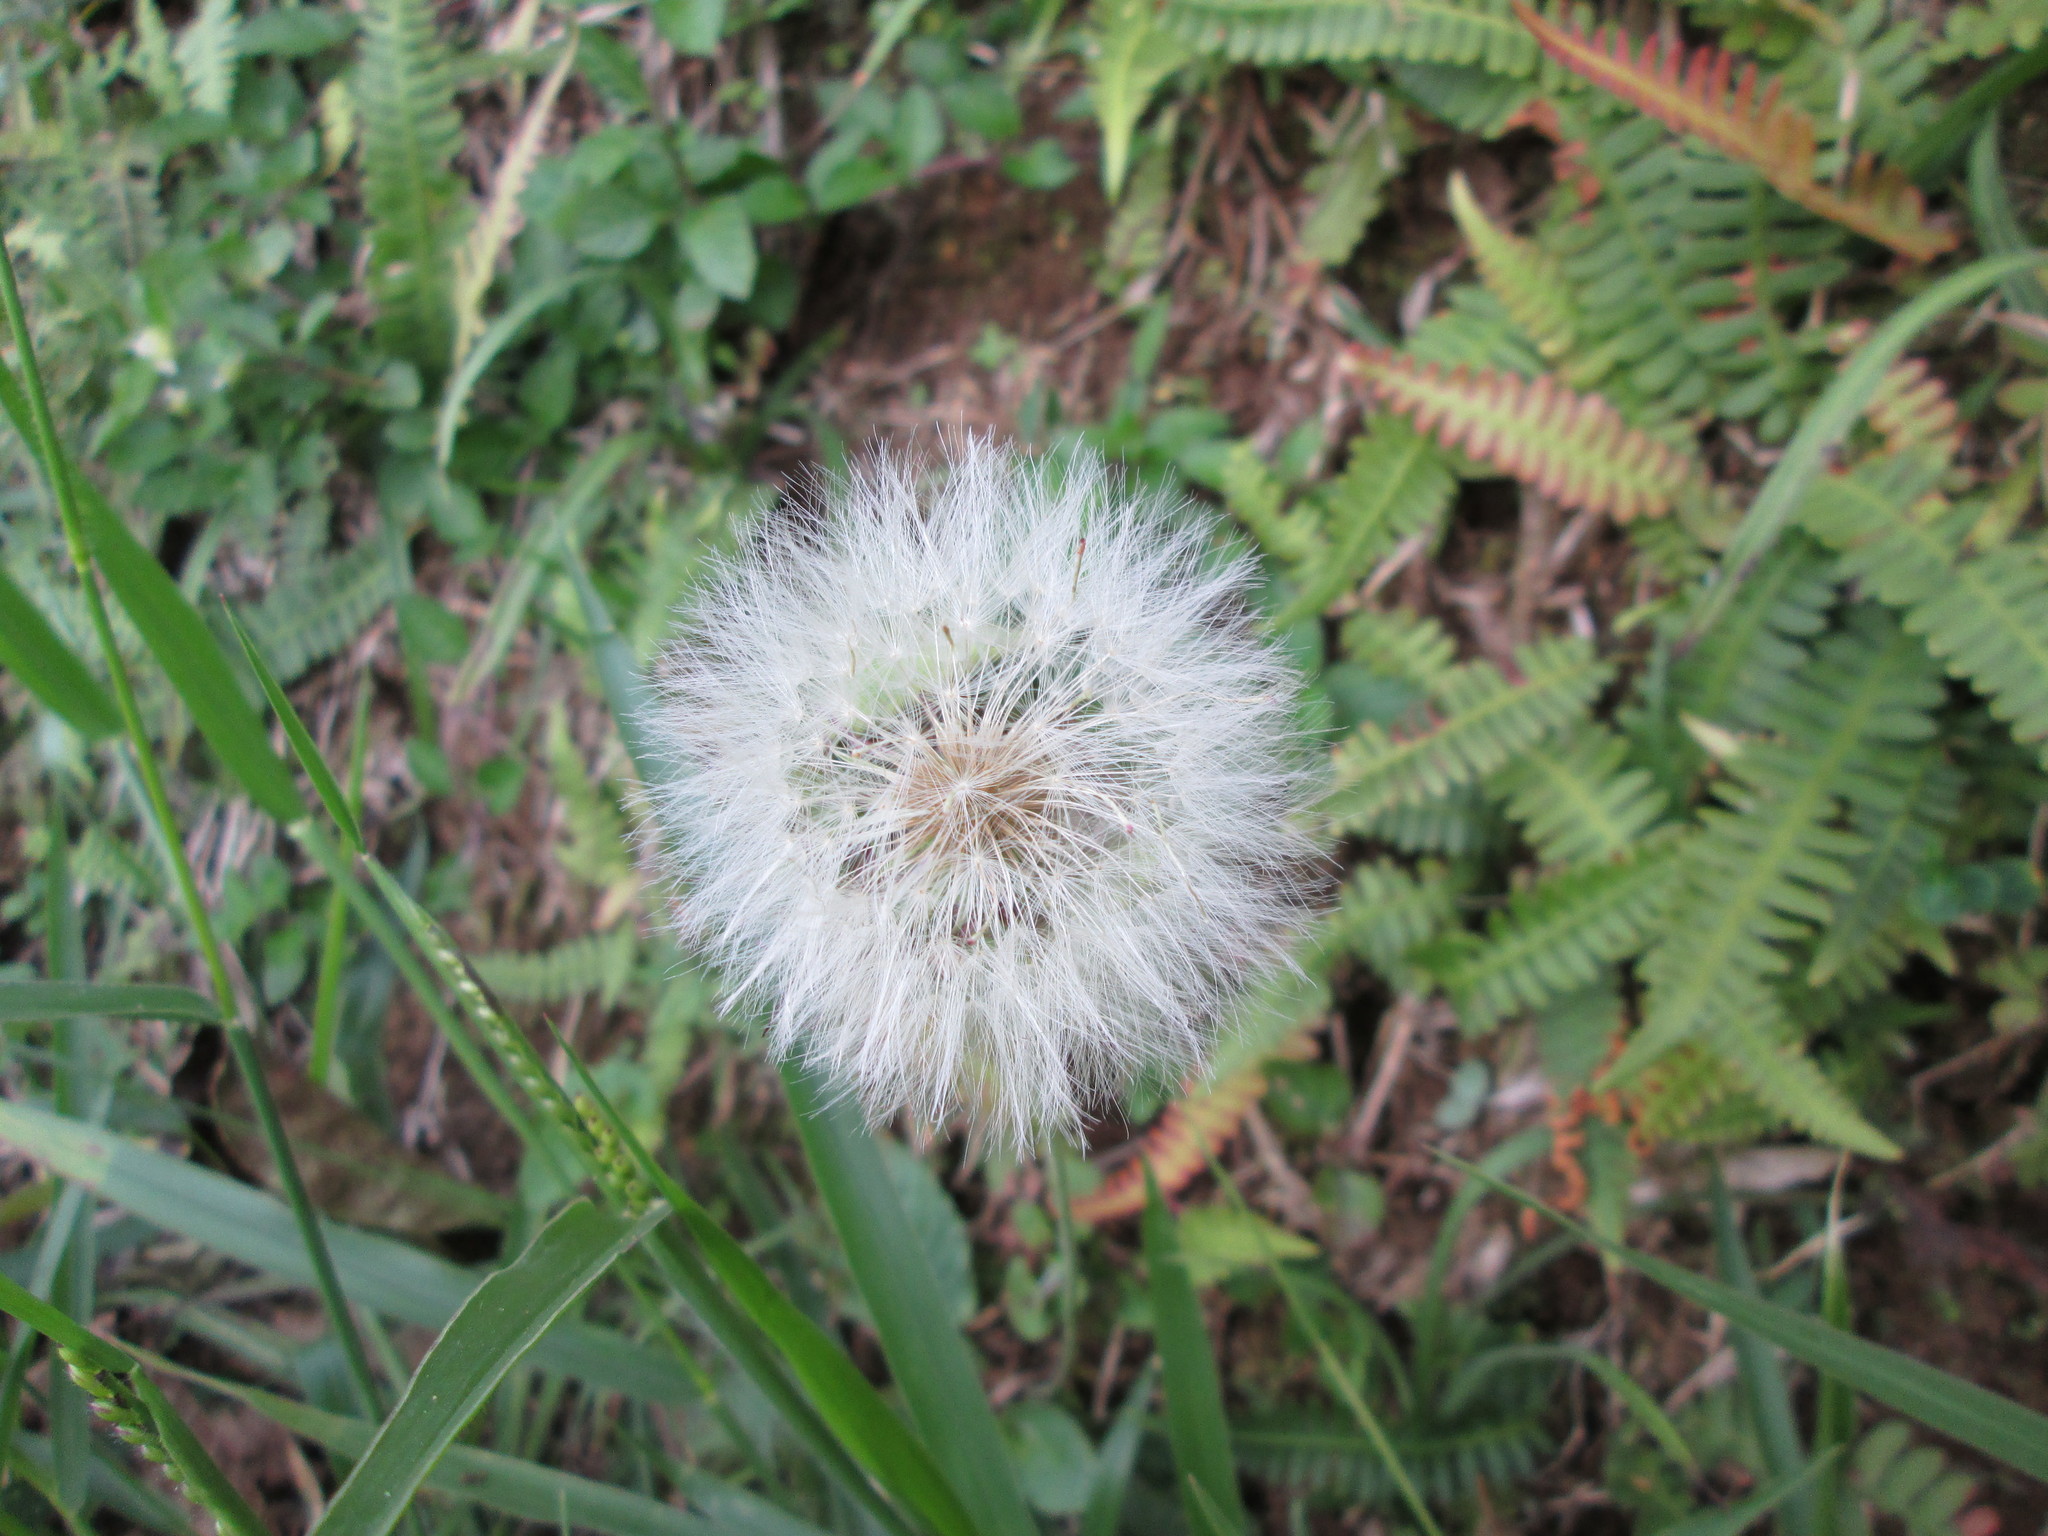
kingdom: Plantae
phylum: Tracheophyta
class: Magnoliopsida
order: Asterales
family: Asteraceae
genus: Taraxacum
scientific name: Taraxacum officinale
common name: Common dandelion
